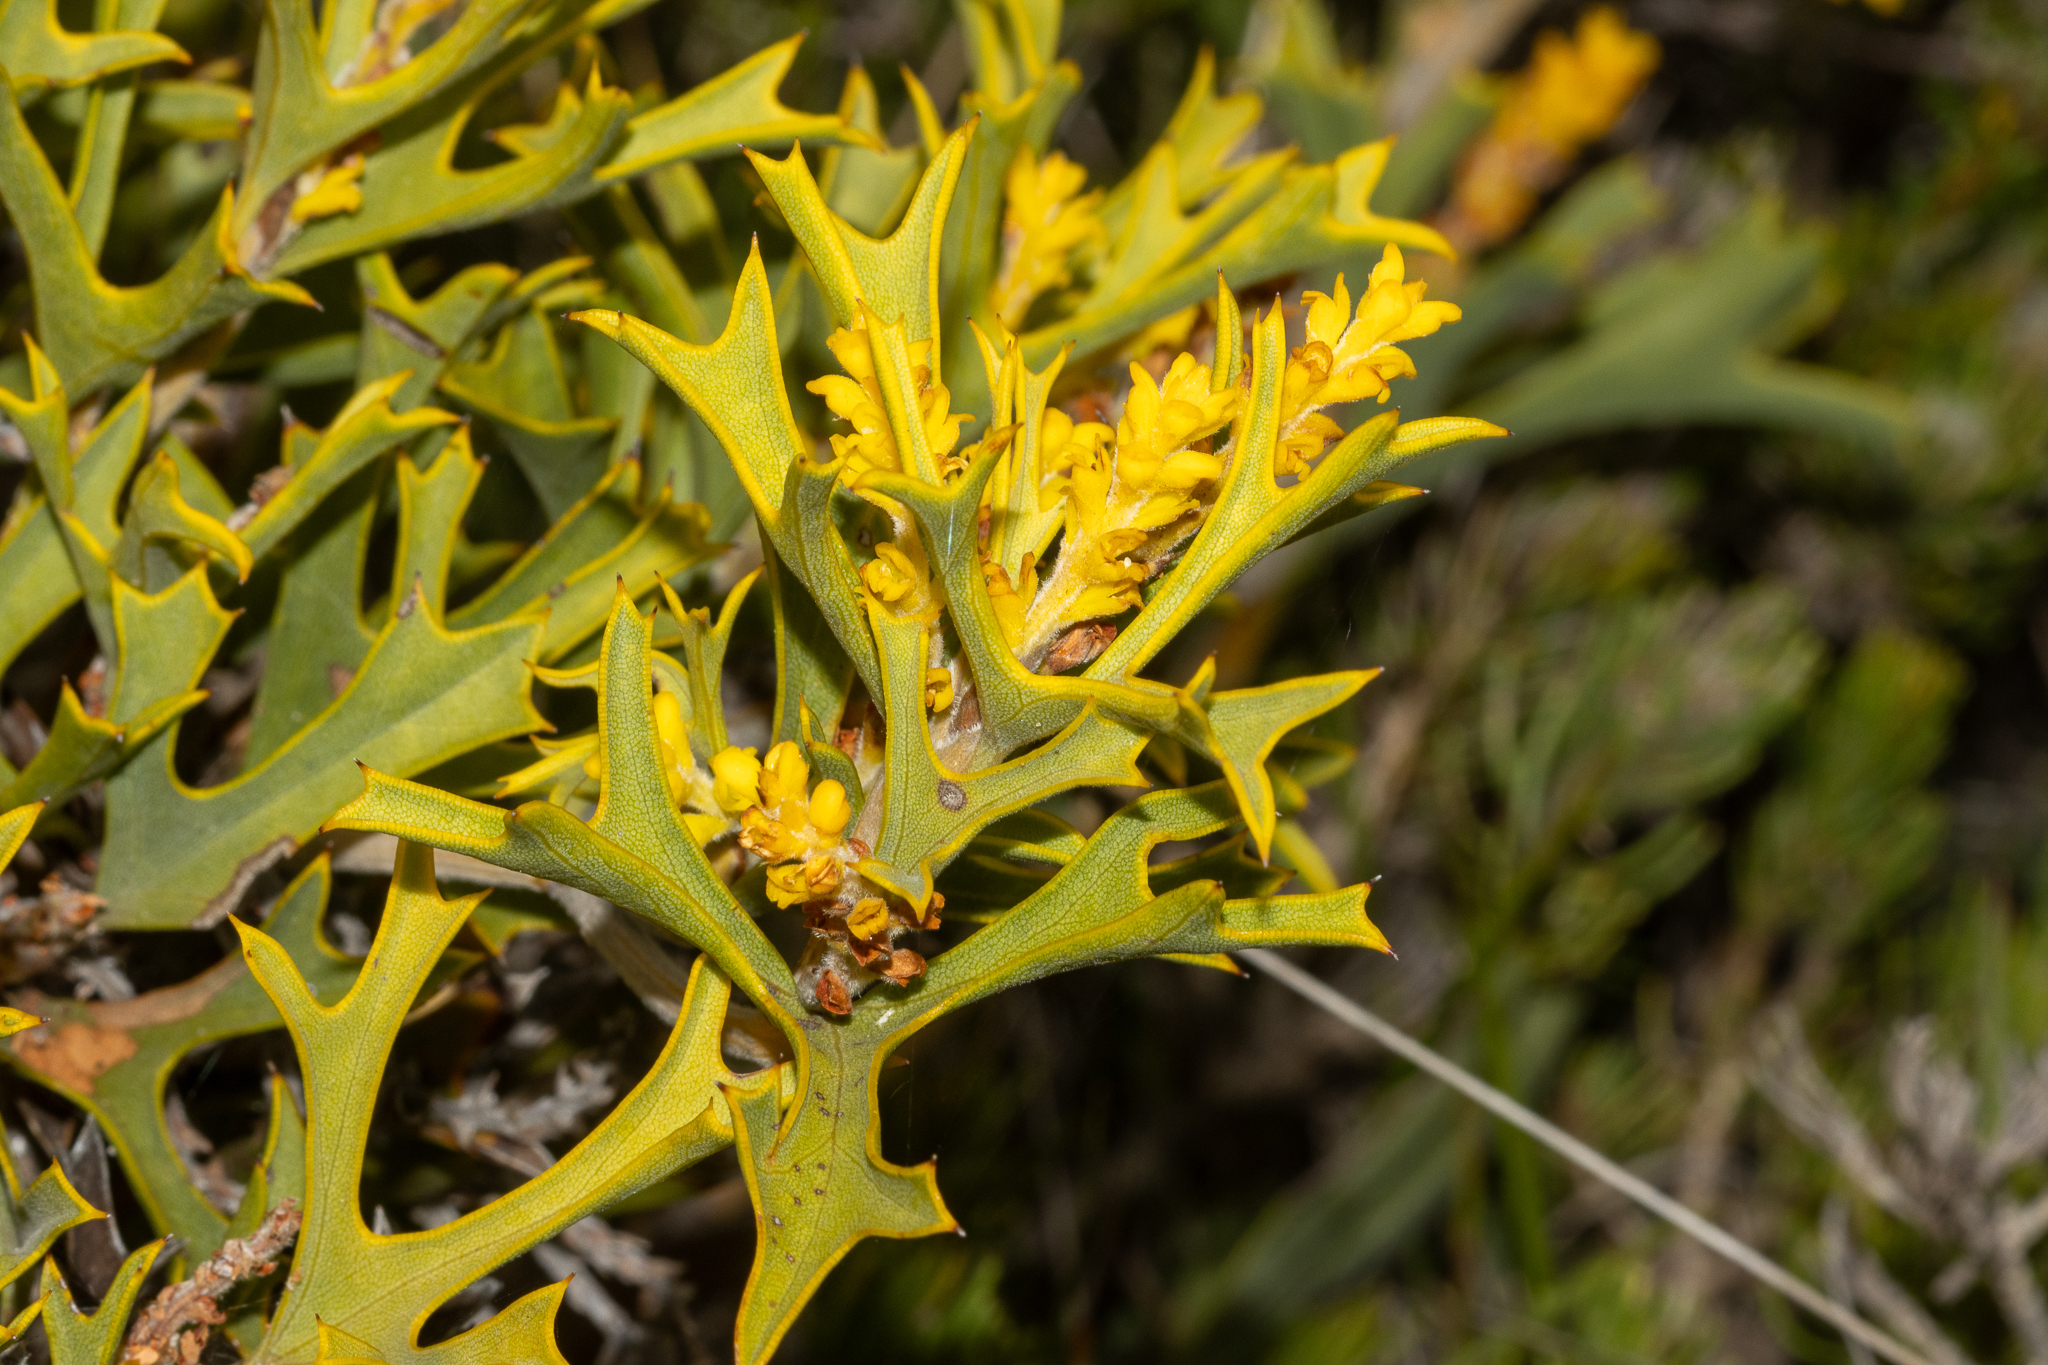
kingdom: Plantae
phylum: Tracheophyta
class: Magnoliopsida
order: Proteales
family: Proteaceae
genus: Synaphea
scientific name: Synaphea spinulosa
